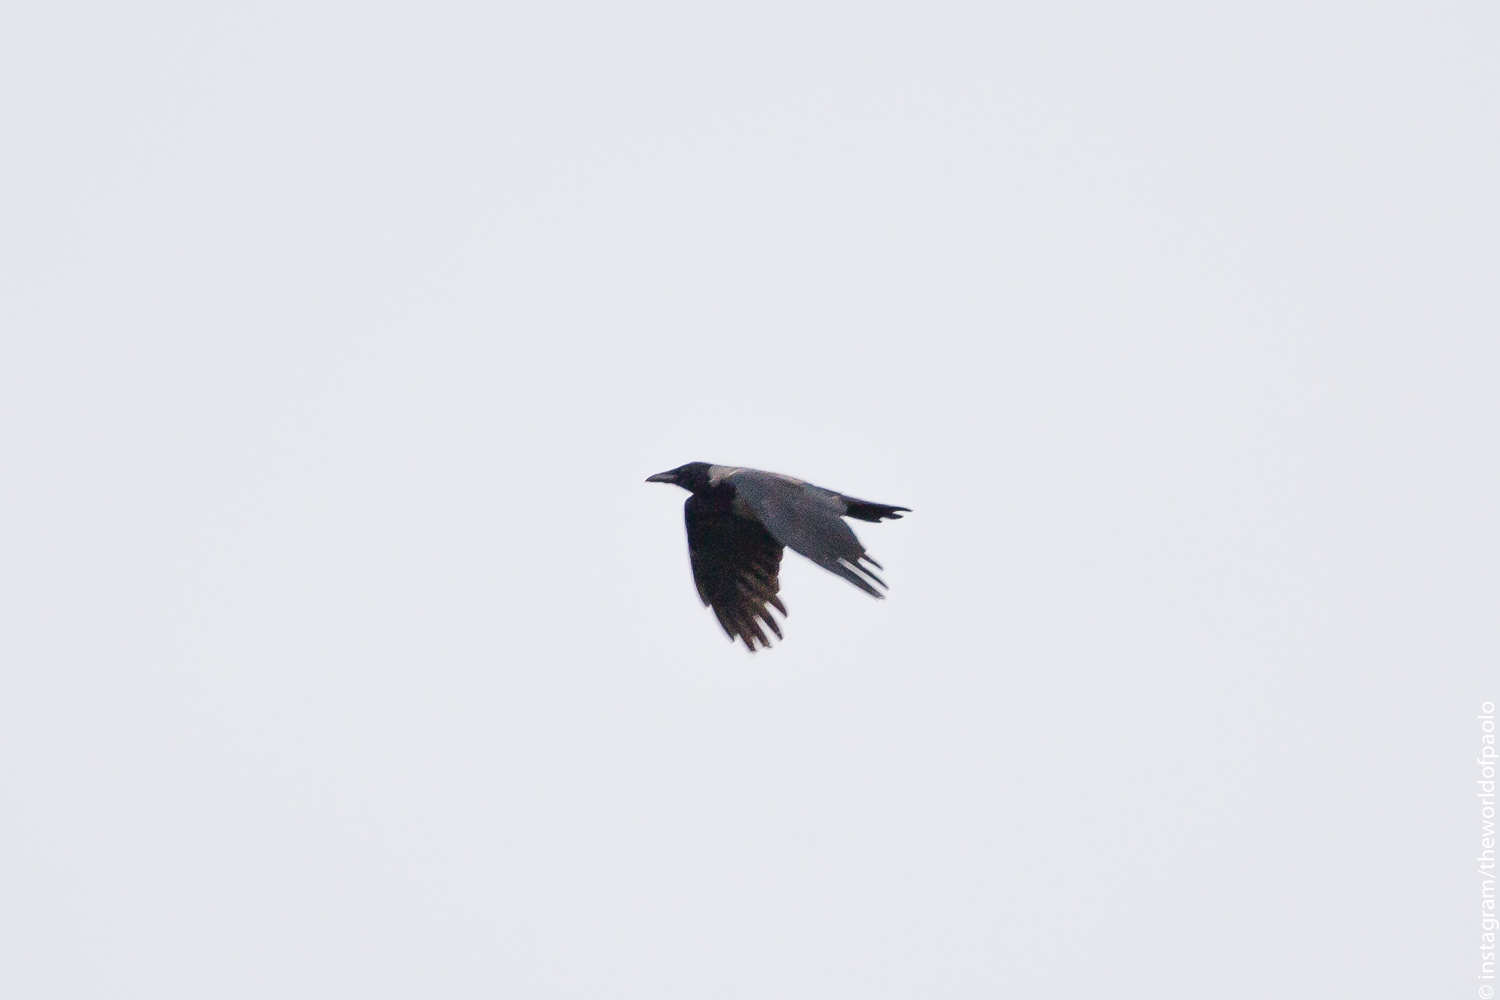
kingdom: Animalia
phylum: Chordata
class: Aves
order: Passeriformes
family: Corvidae
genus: Corvus
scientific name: Corvus cornix
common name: Hooded crow
